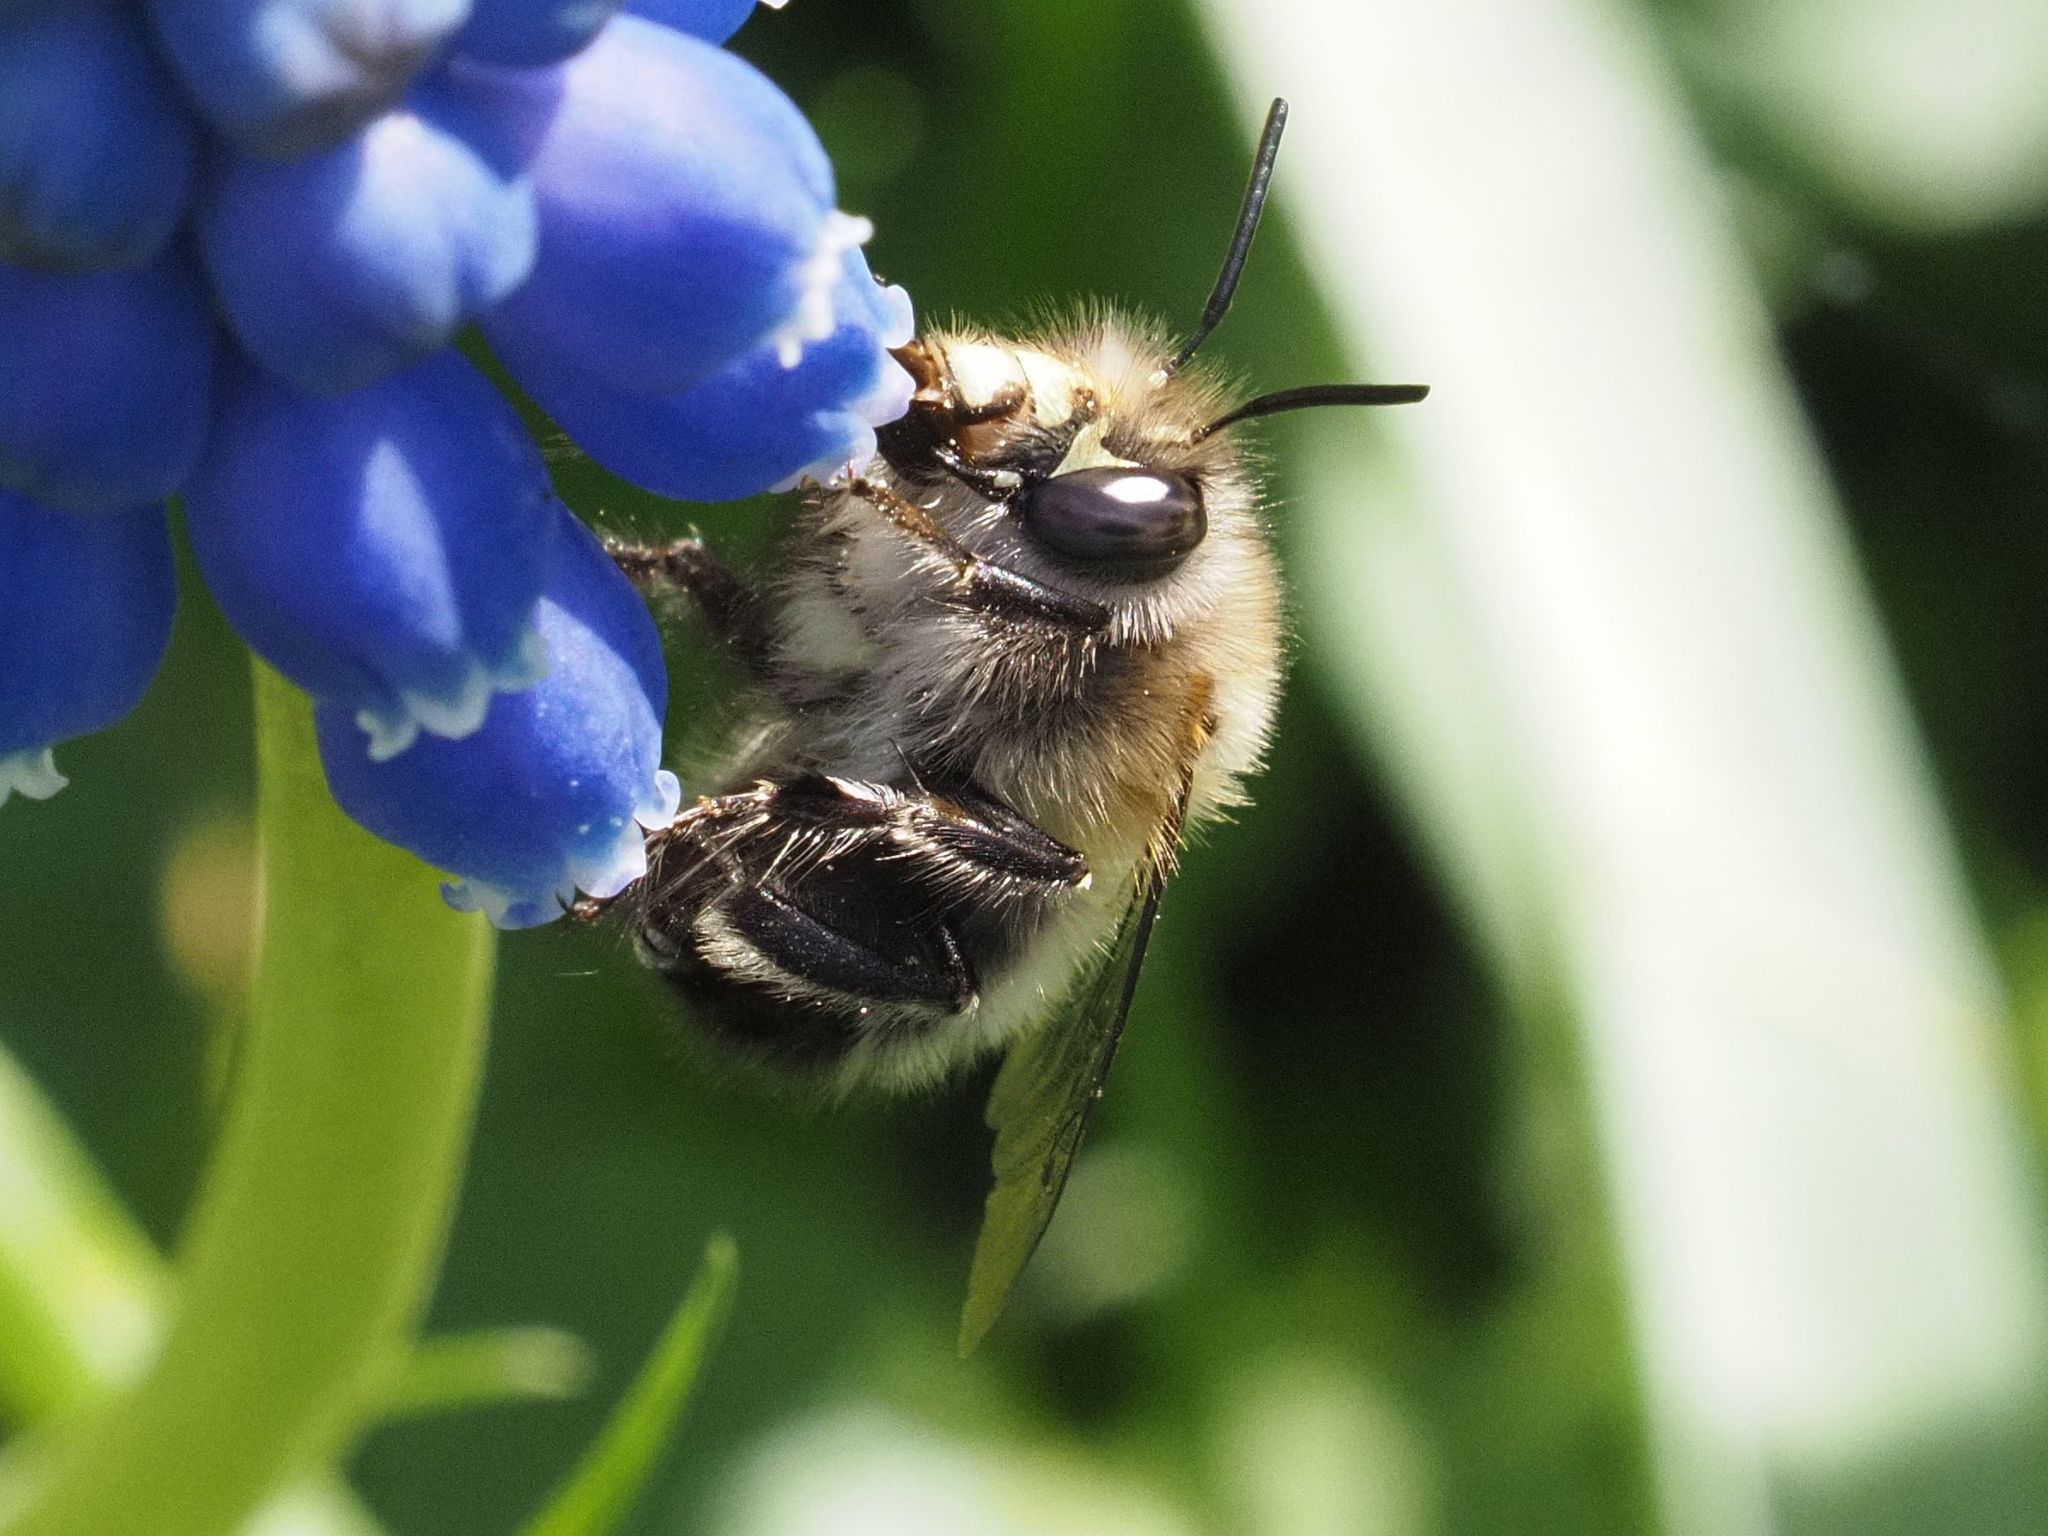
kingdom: Animalia
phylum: Arthropoda
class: Insecta
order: Hymenoptera
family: Apidae
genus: Anthophora
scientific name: Anthophora plumipes
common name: Hairy-footed flower bee
